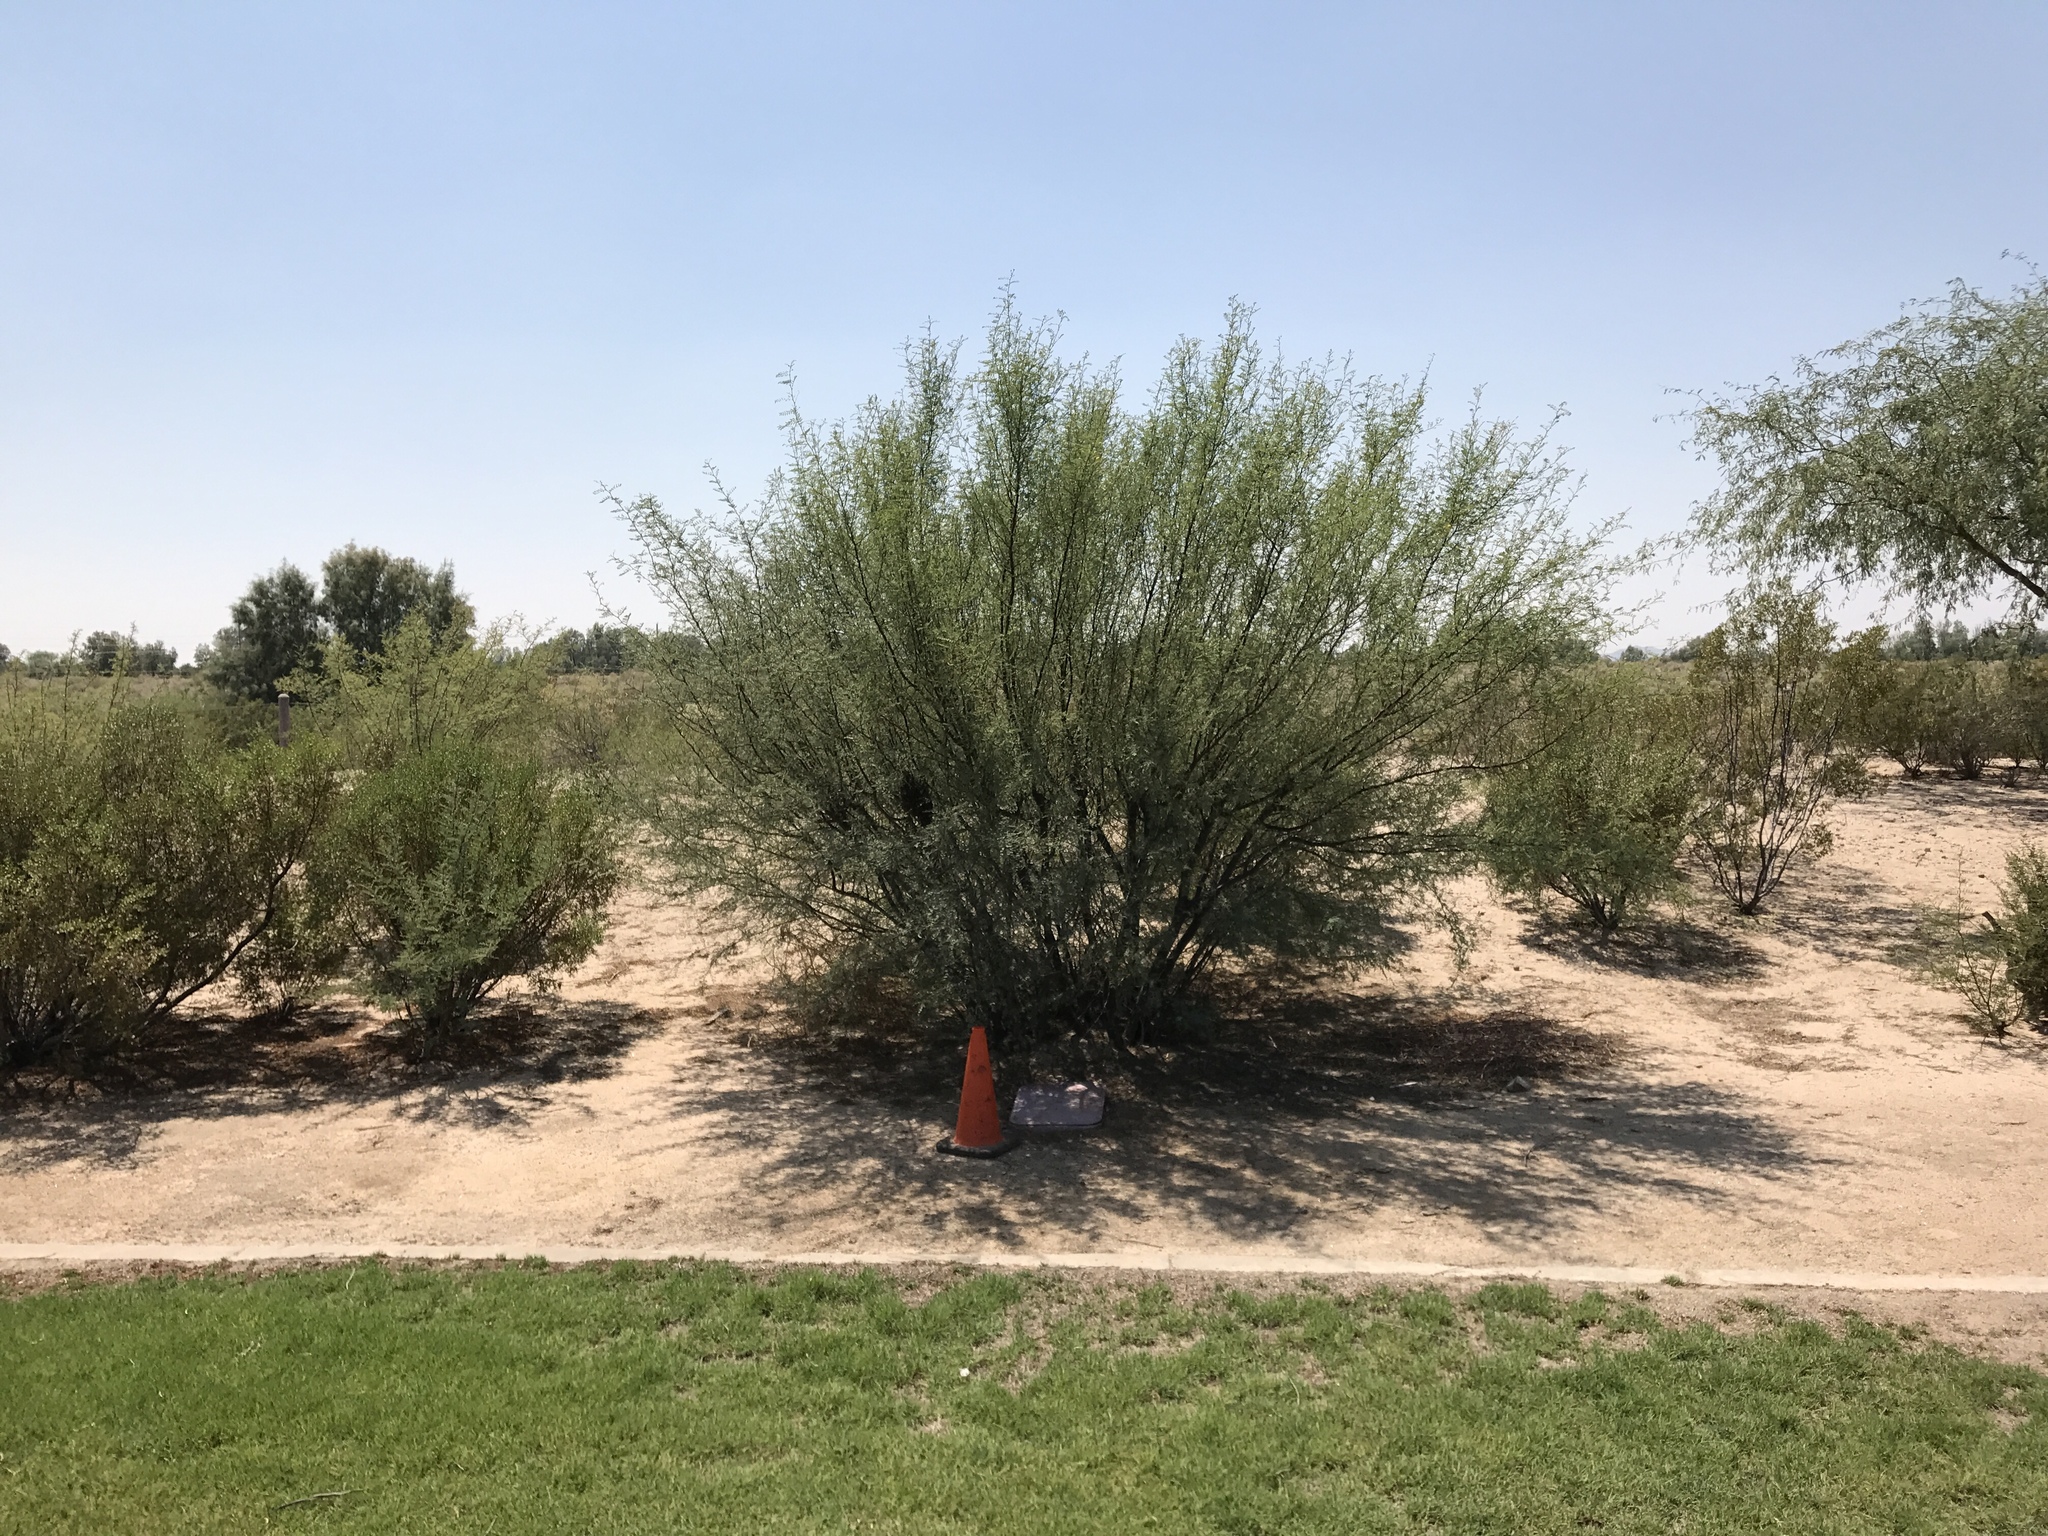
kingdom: Animalia
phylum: Arthropoda
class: Insecta
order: Hymenoptera
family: Apidae
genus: Apis
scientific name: Apis mellifera
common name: Honey bee
